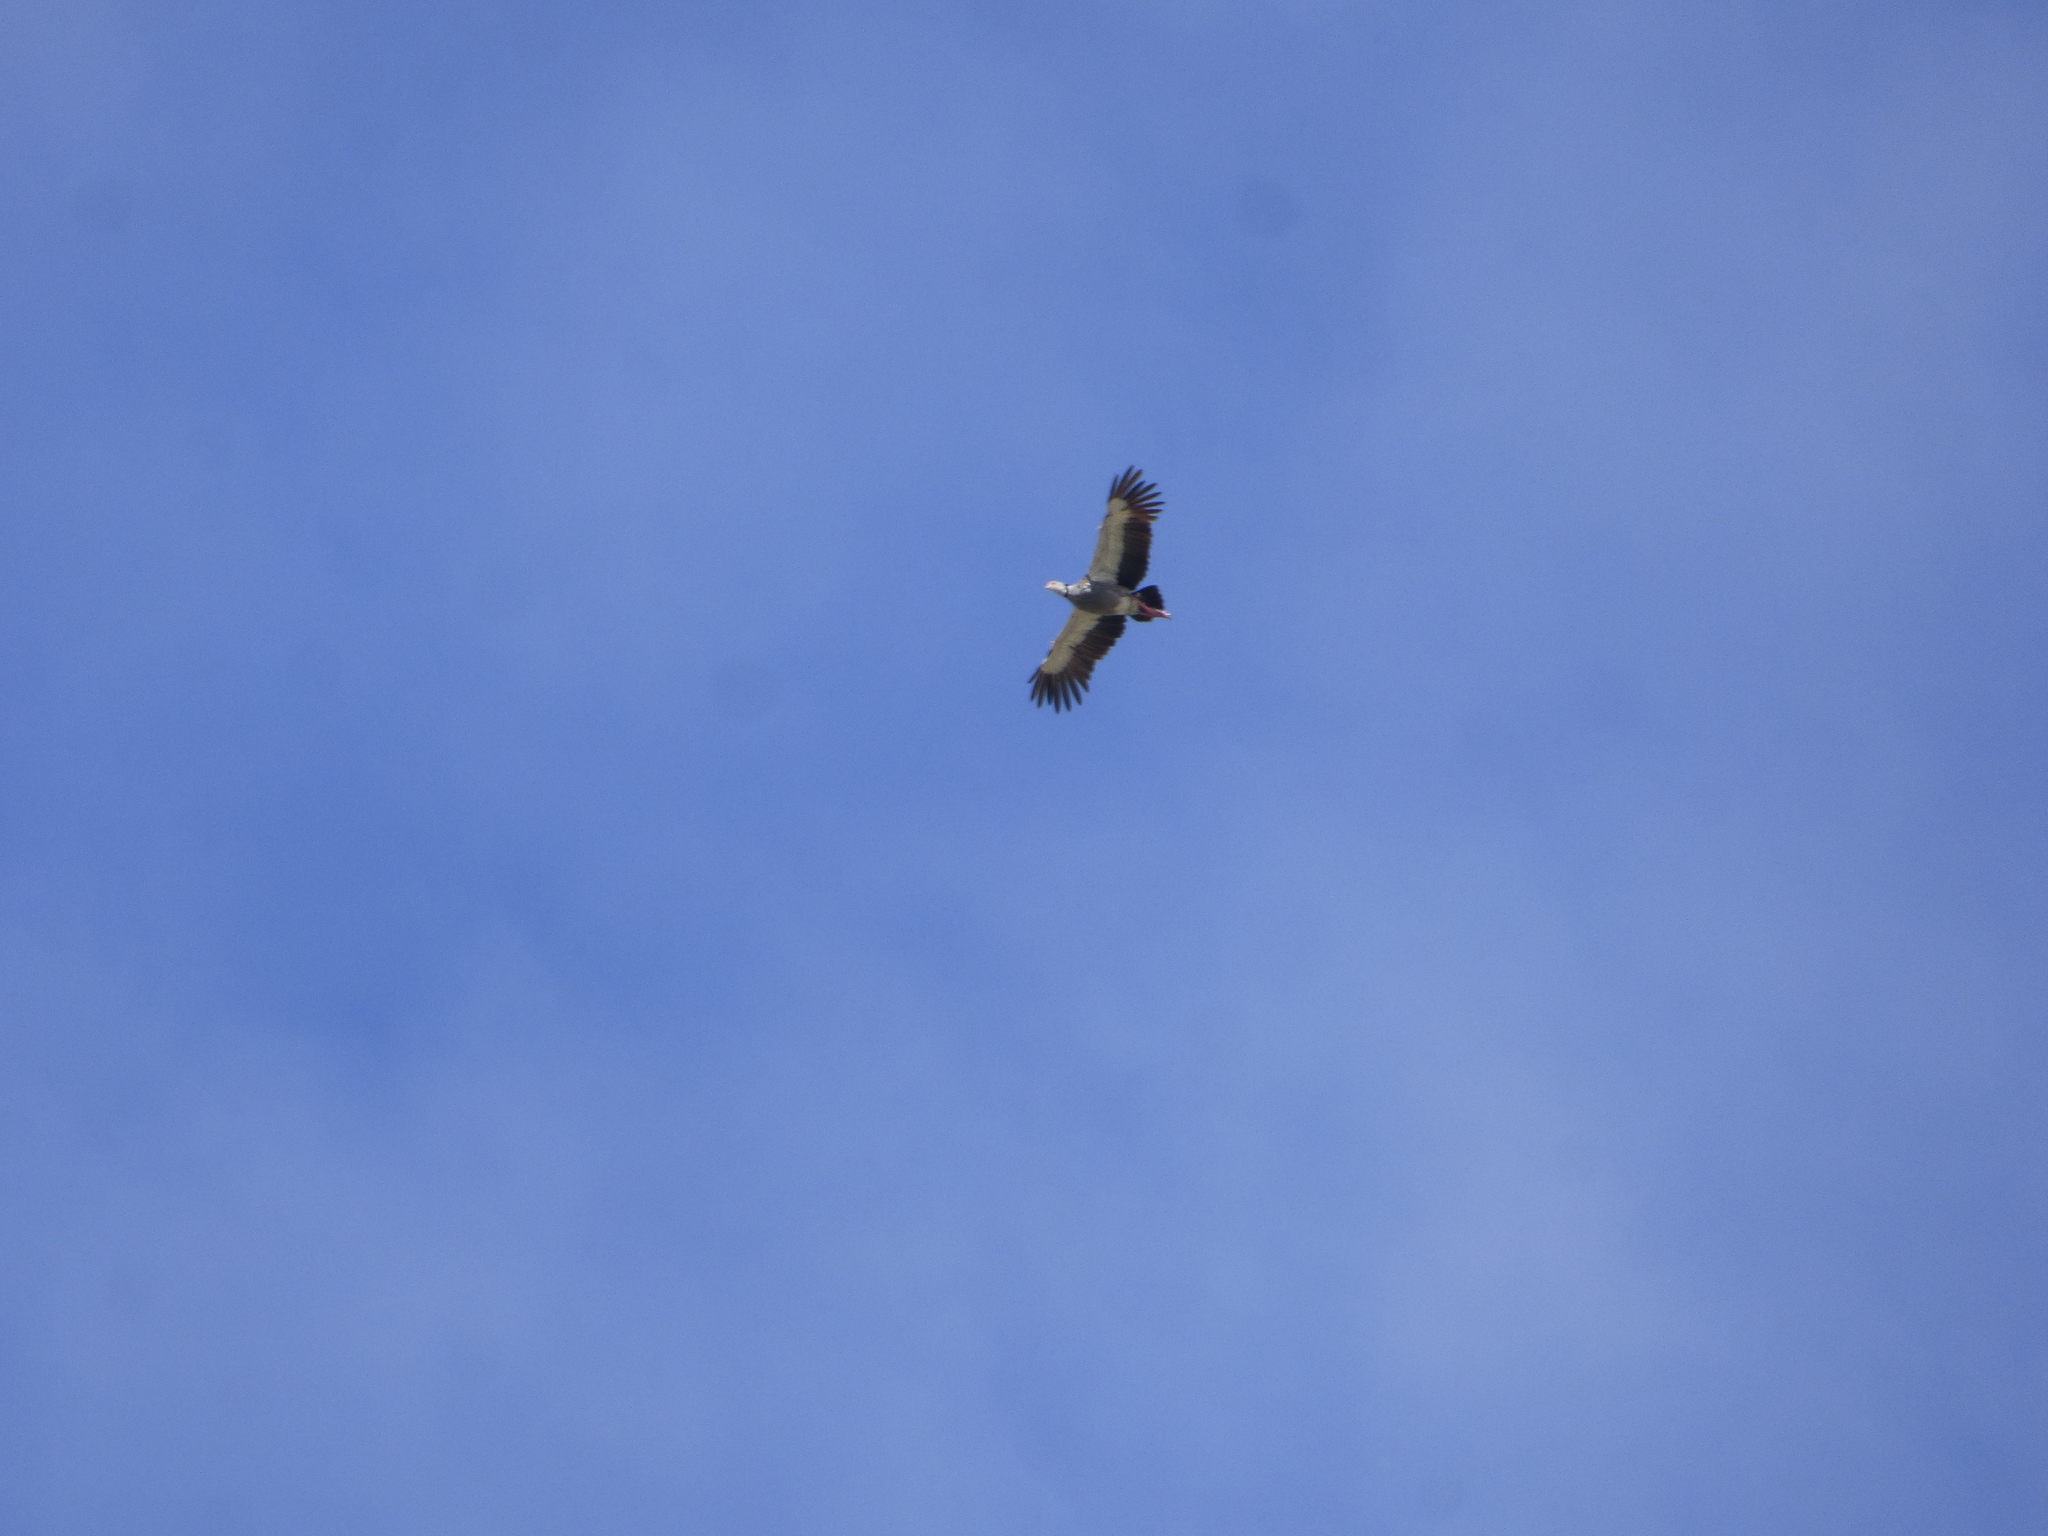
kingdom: Animalia
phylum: Chordata
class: Aves
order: Anseriformes
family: Anhimidae
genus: Chauna
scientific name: Chauna torquata
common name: Southern screamer
